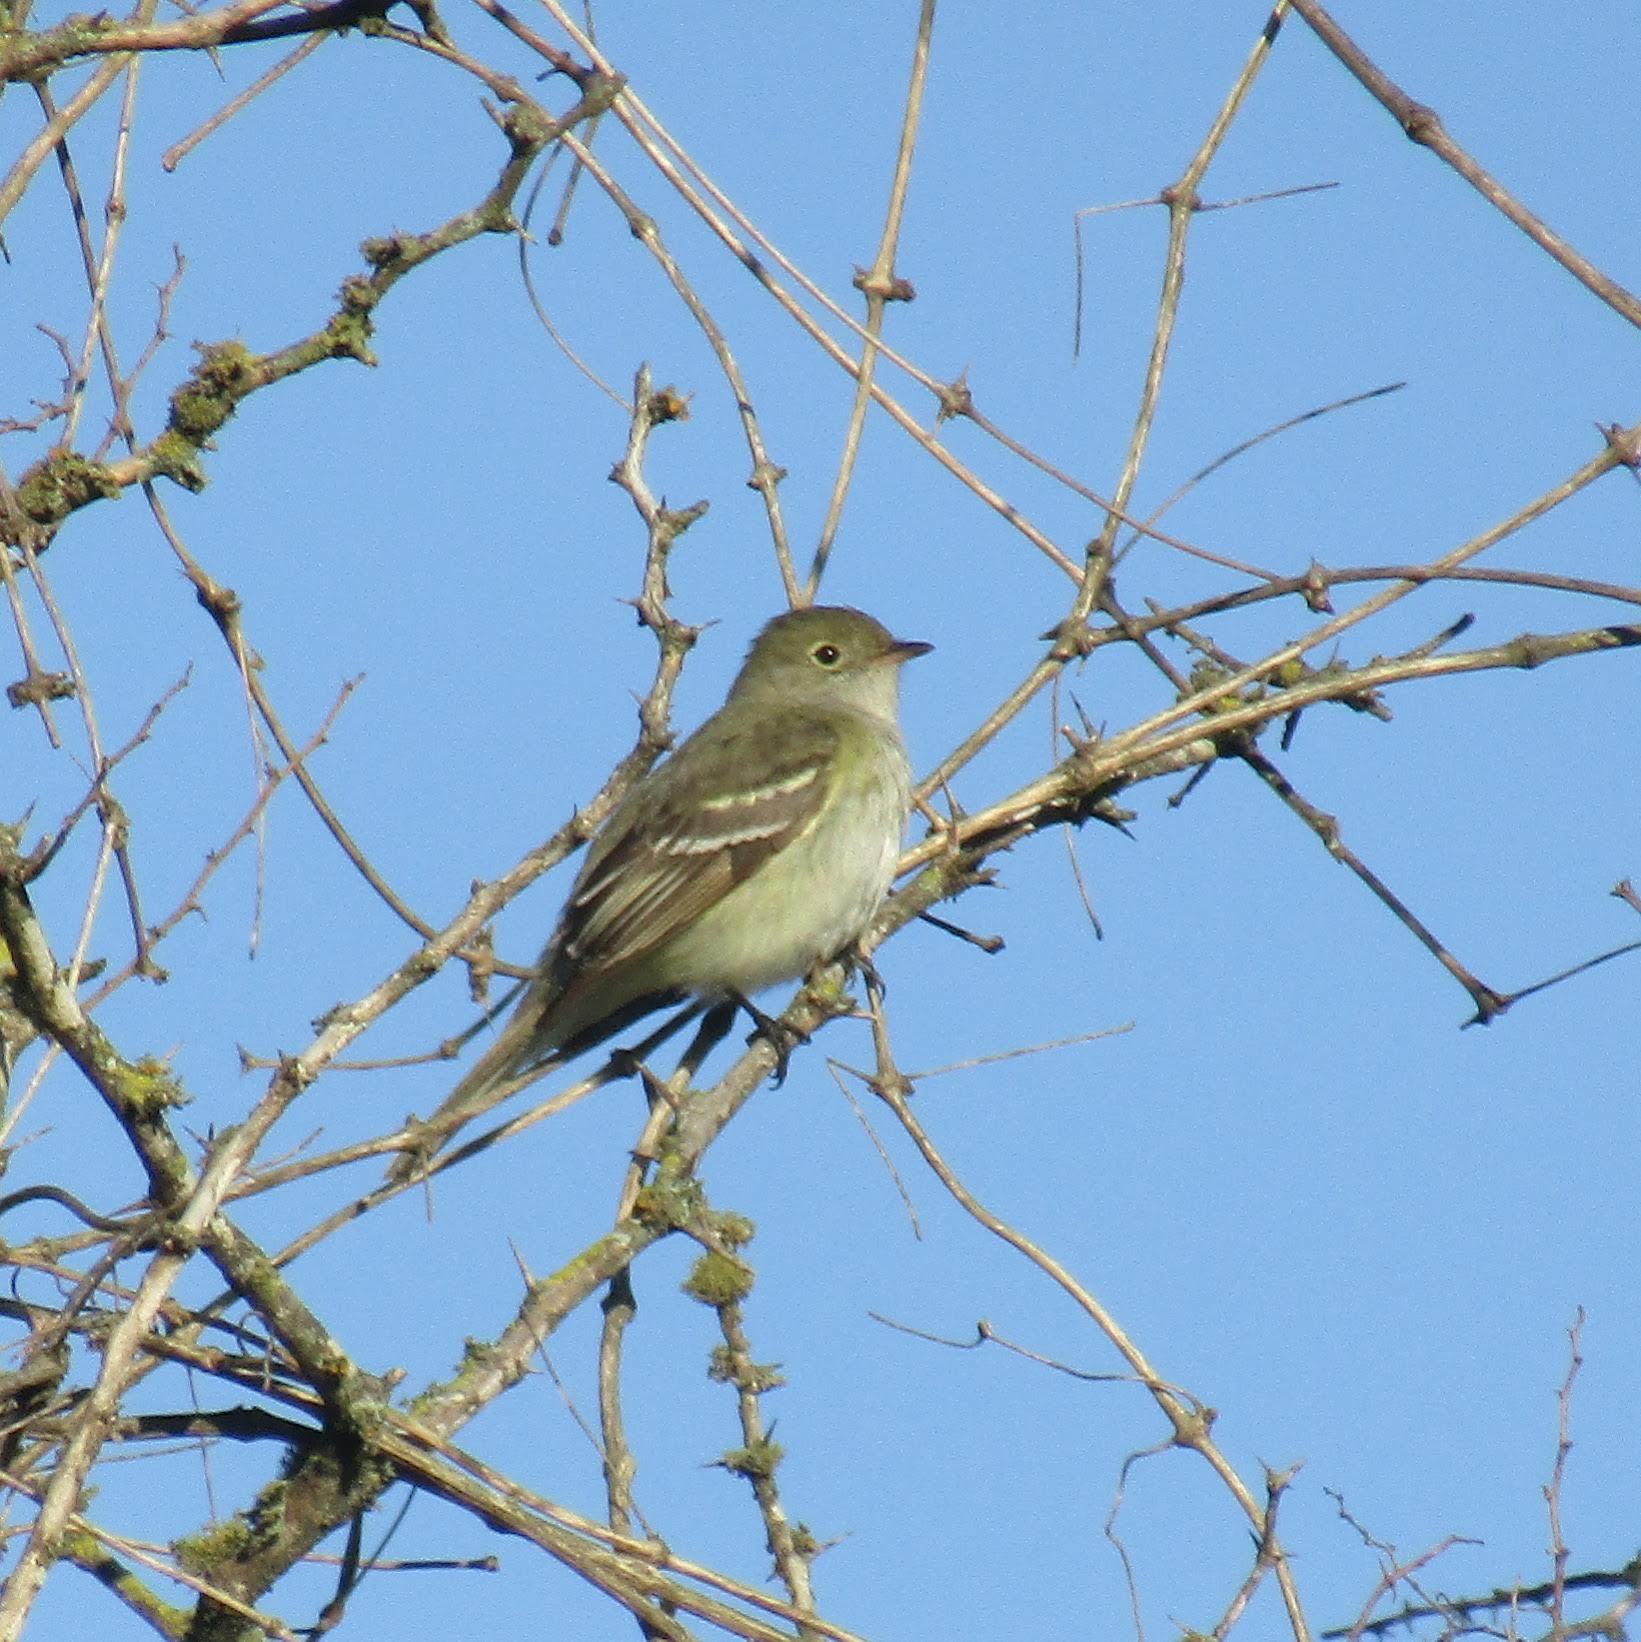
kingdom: Animalia
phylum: Chordata
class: Aves
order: Passeriformes
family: Tyrannidae
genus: Elaenia
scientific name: Elaenia parvirostris
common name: Small-billed elaenia
